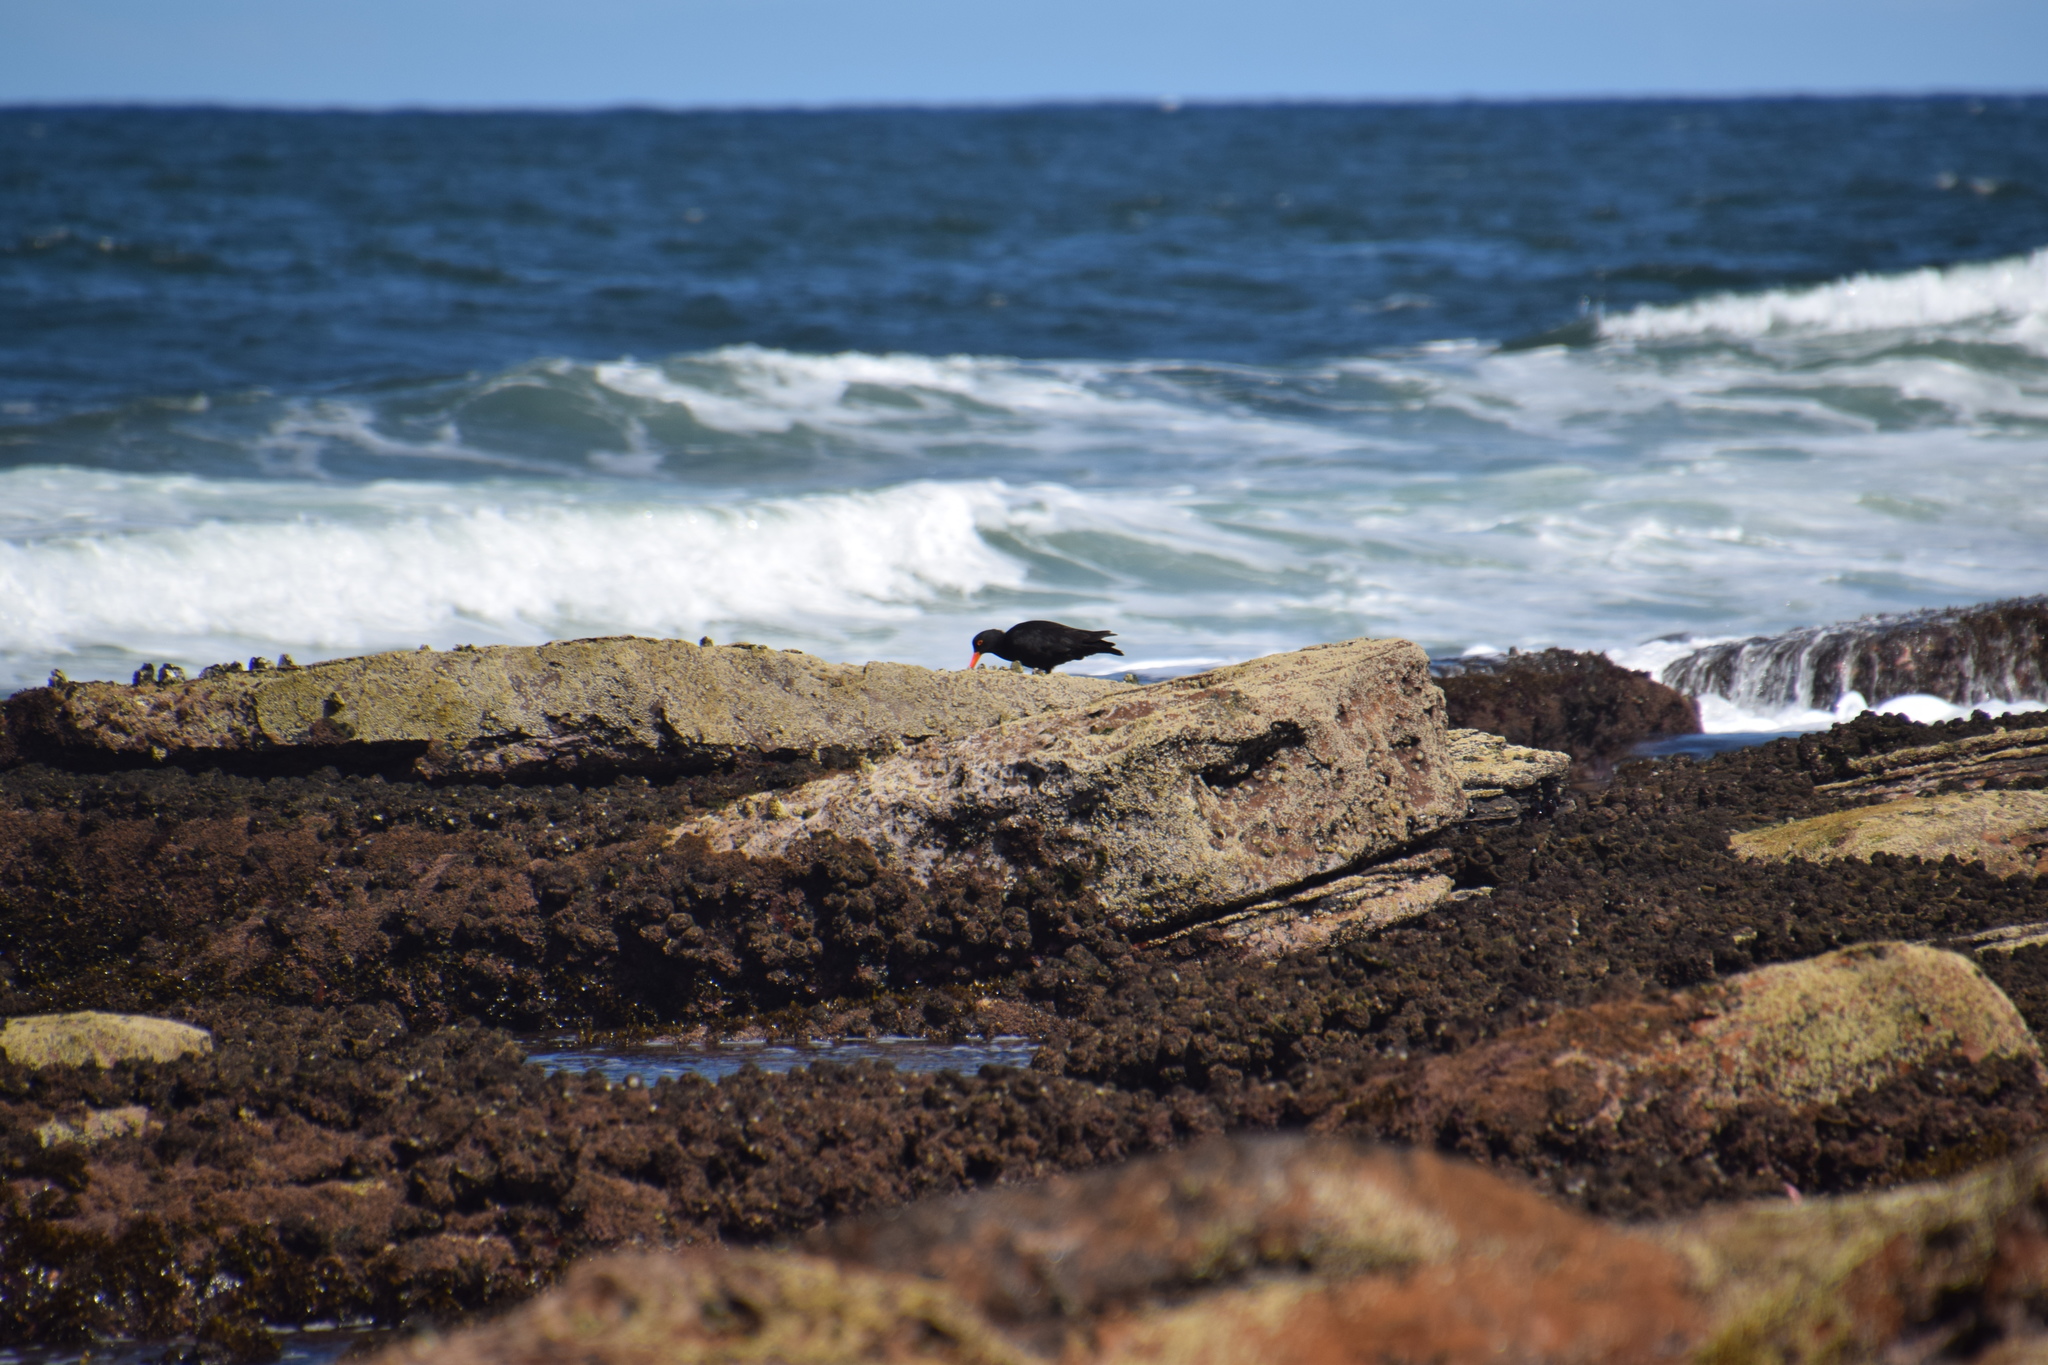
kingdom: Animalia
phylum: Chordata
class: Aves
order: Charadriiformes
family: Haematopodidae
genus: Haematopus
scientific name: Haematopus fuliginosus
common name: Sooty oystercatcher
